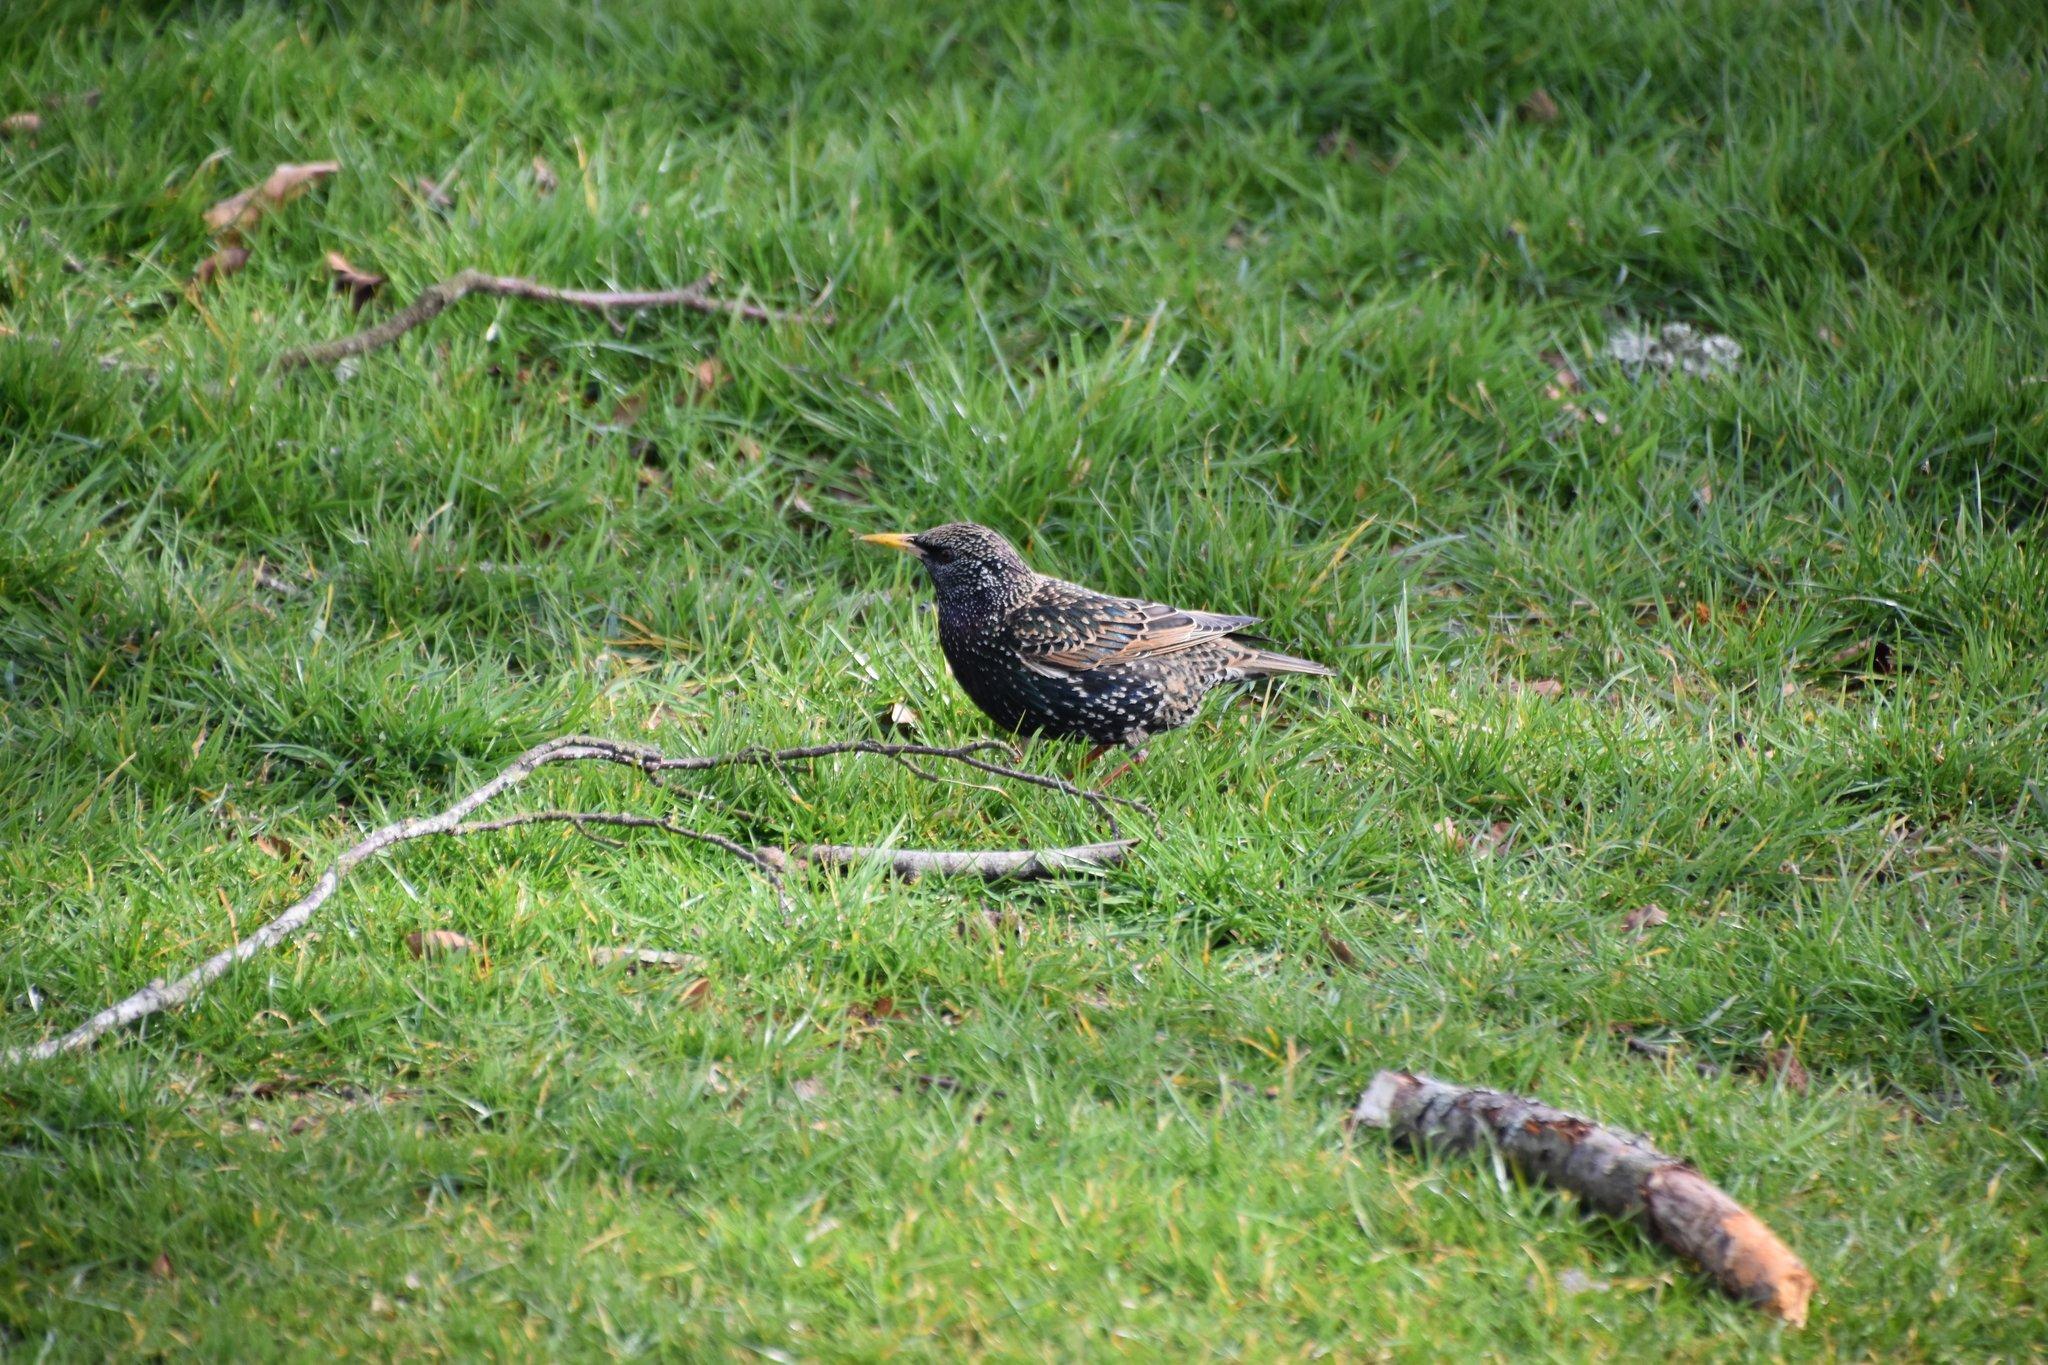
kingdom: Animalia
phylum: Chordata
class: Aves
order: Passeriformes
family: Sturnidae
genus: Sturnus
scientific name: Sturnus vulgaris
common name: Common starling
